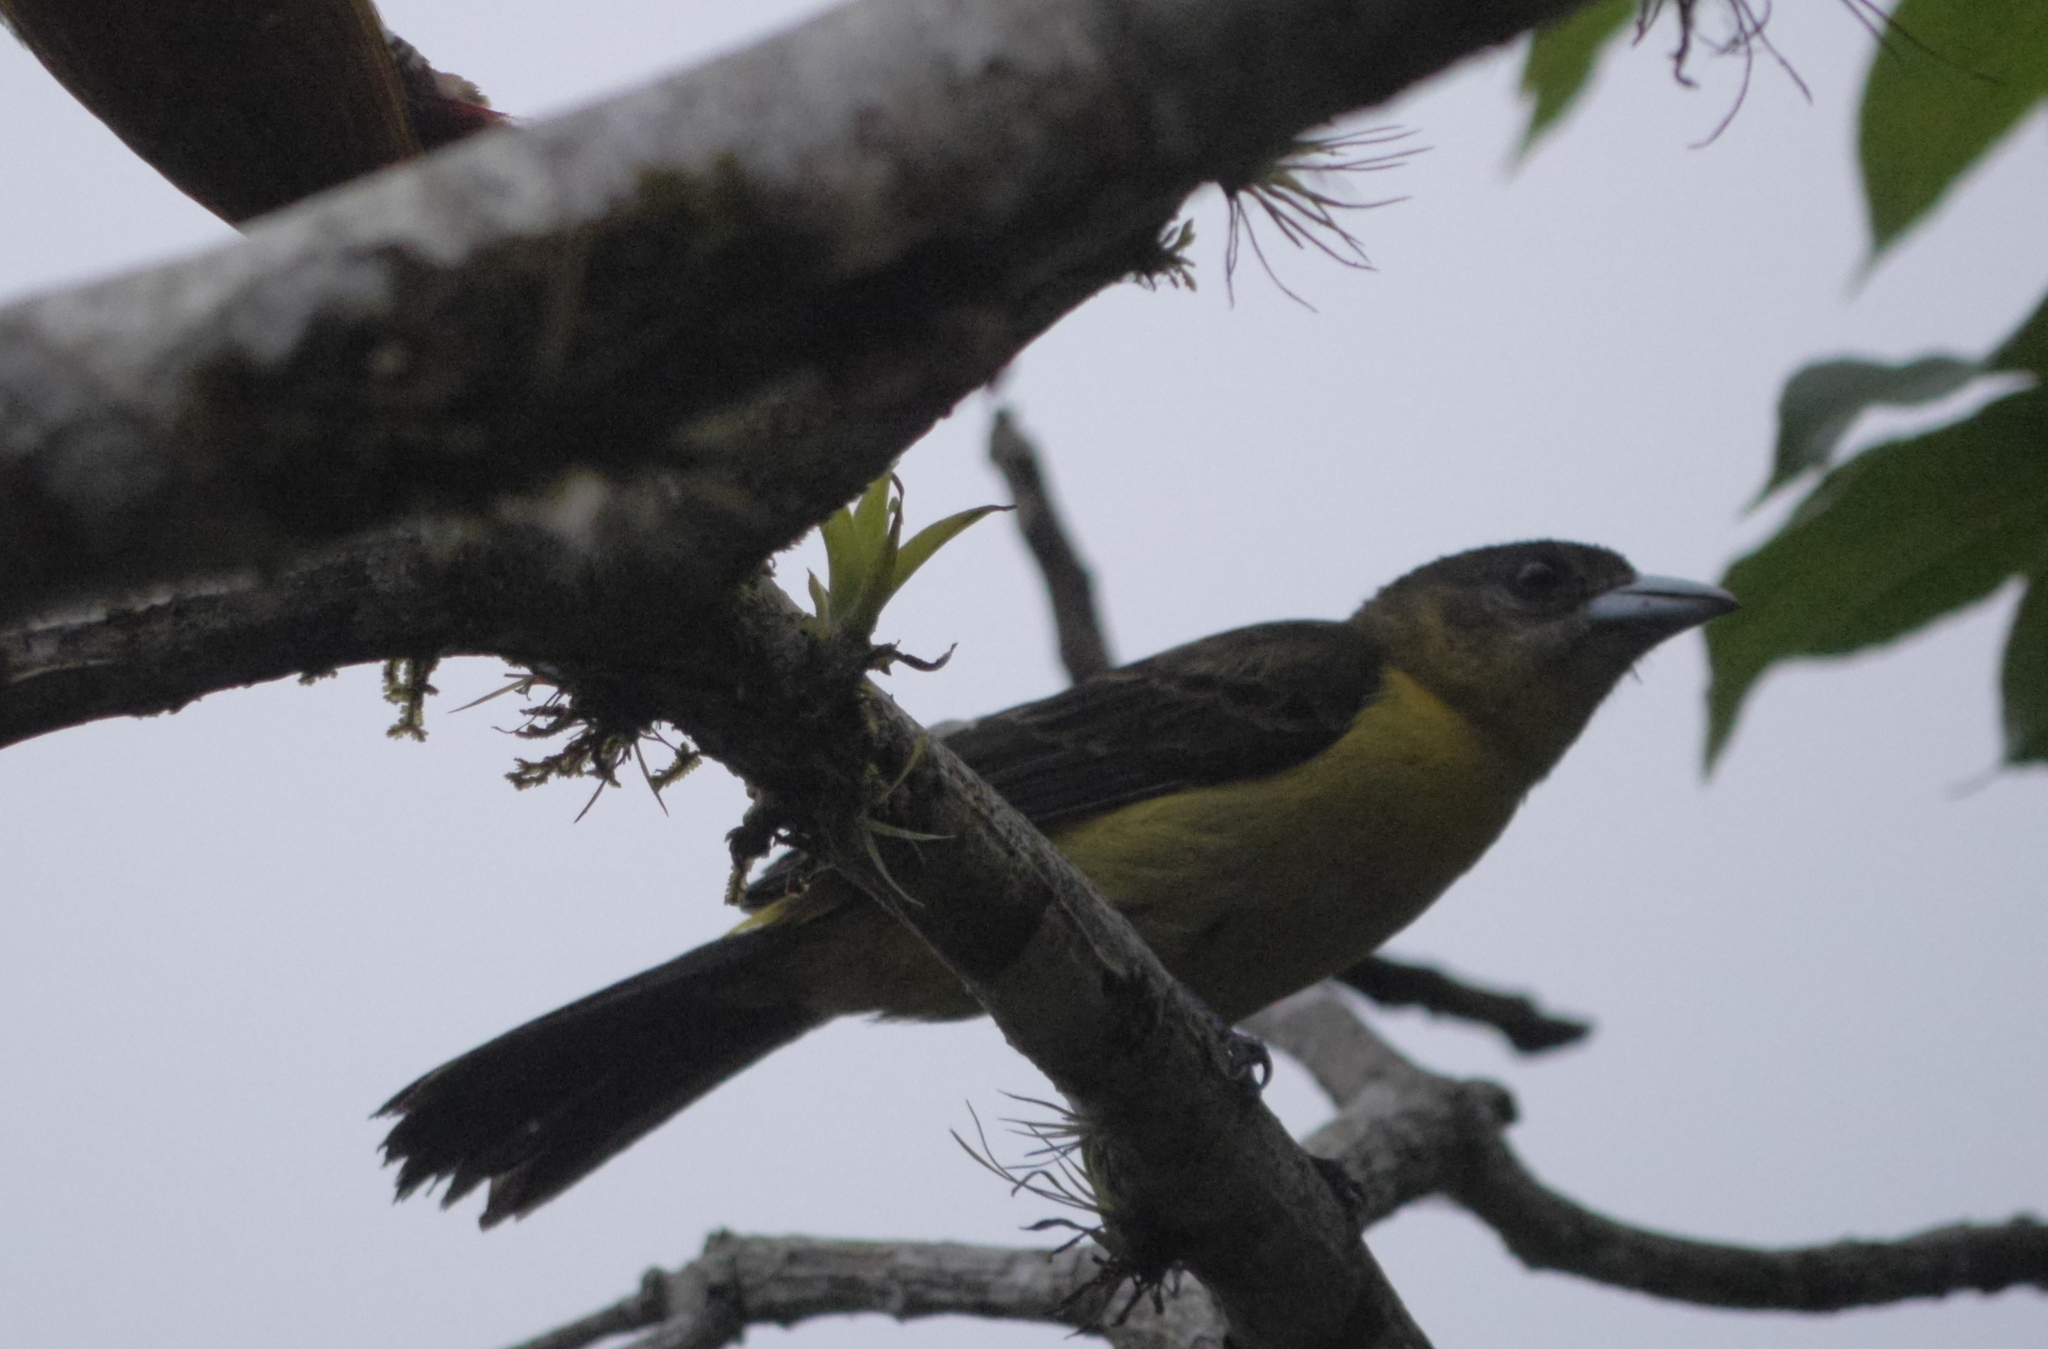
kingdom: Animalia
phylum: Chordata
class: Aves
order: Passeriformes
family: Thraupidae
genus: Ramphocelus
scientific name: Ramphocelus flammigerus
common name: Flame-rumped tanager
